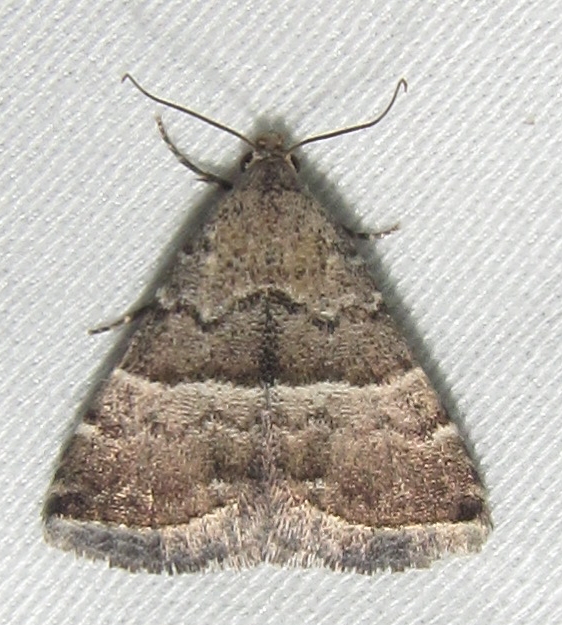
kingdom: Animalia
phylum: Arthropoda
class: Insecta
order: Lepidoptera
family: Noctuidae
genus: Eublemma
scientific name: Eublemma bolinia
